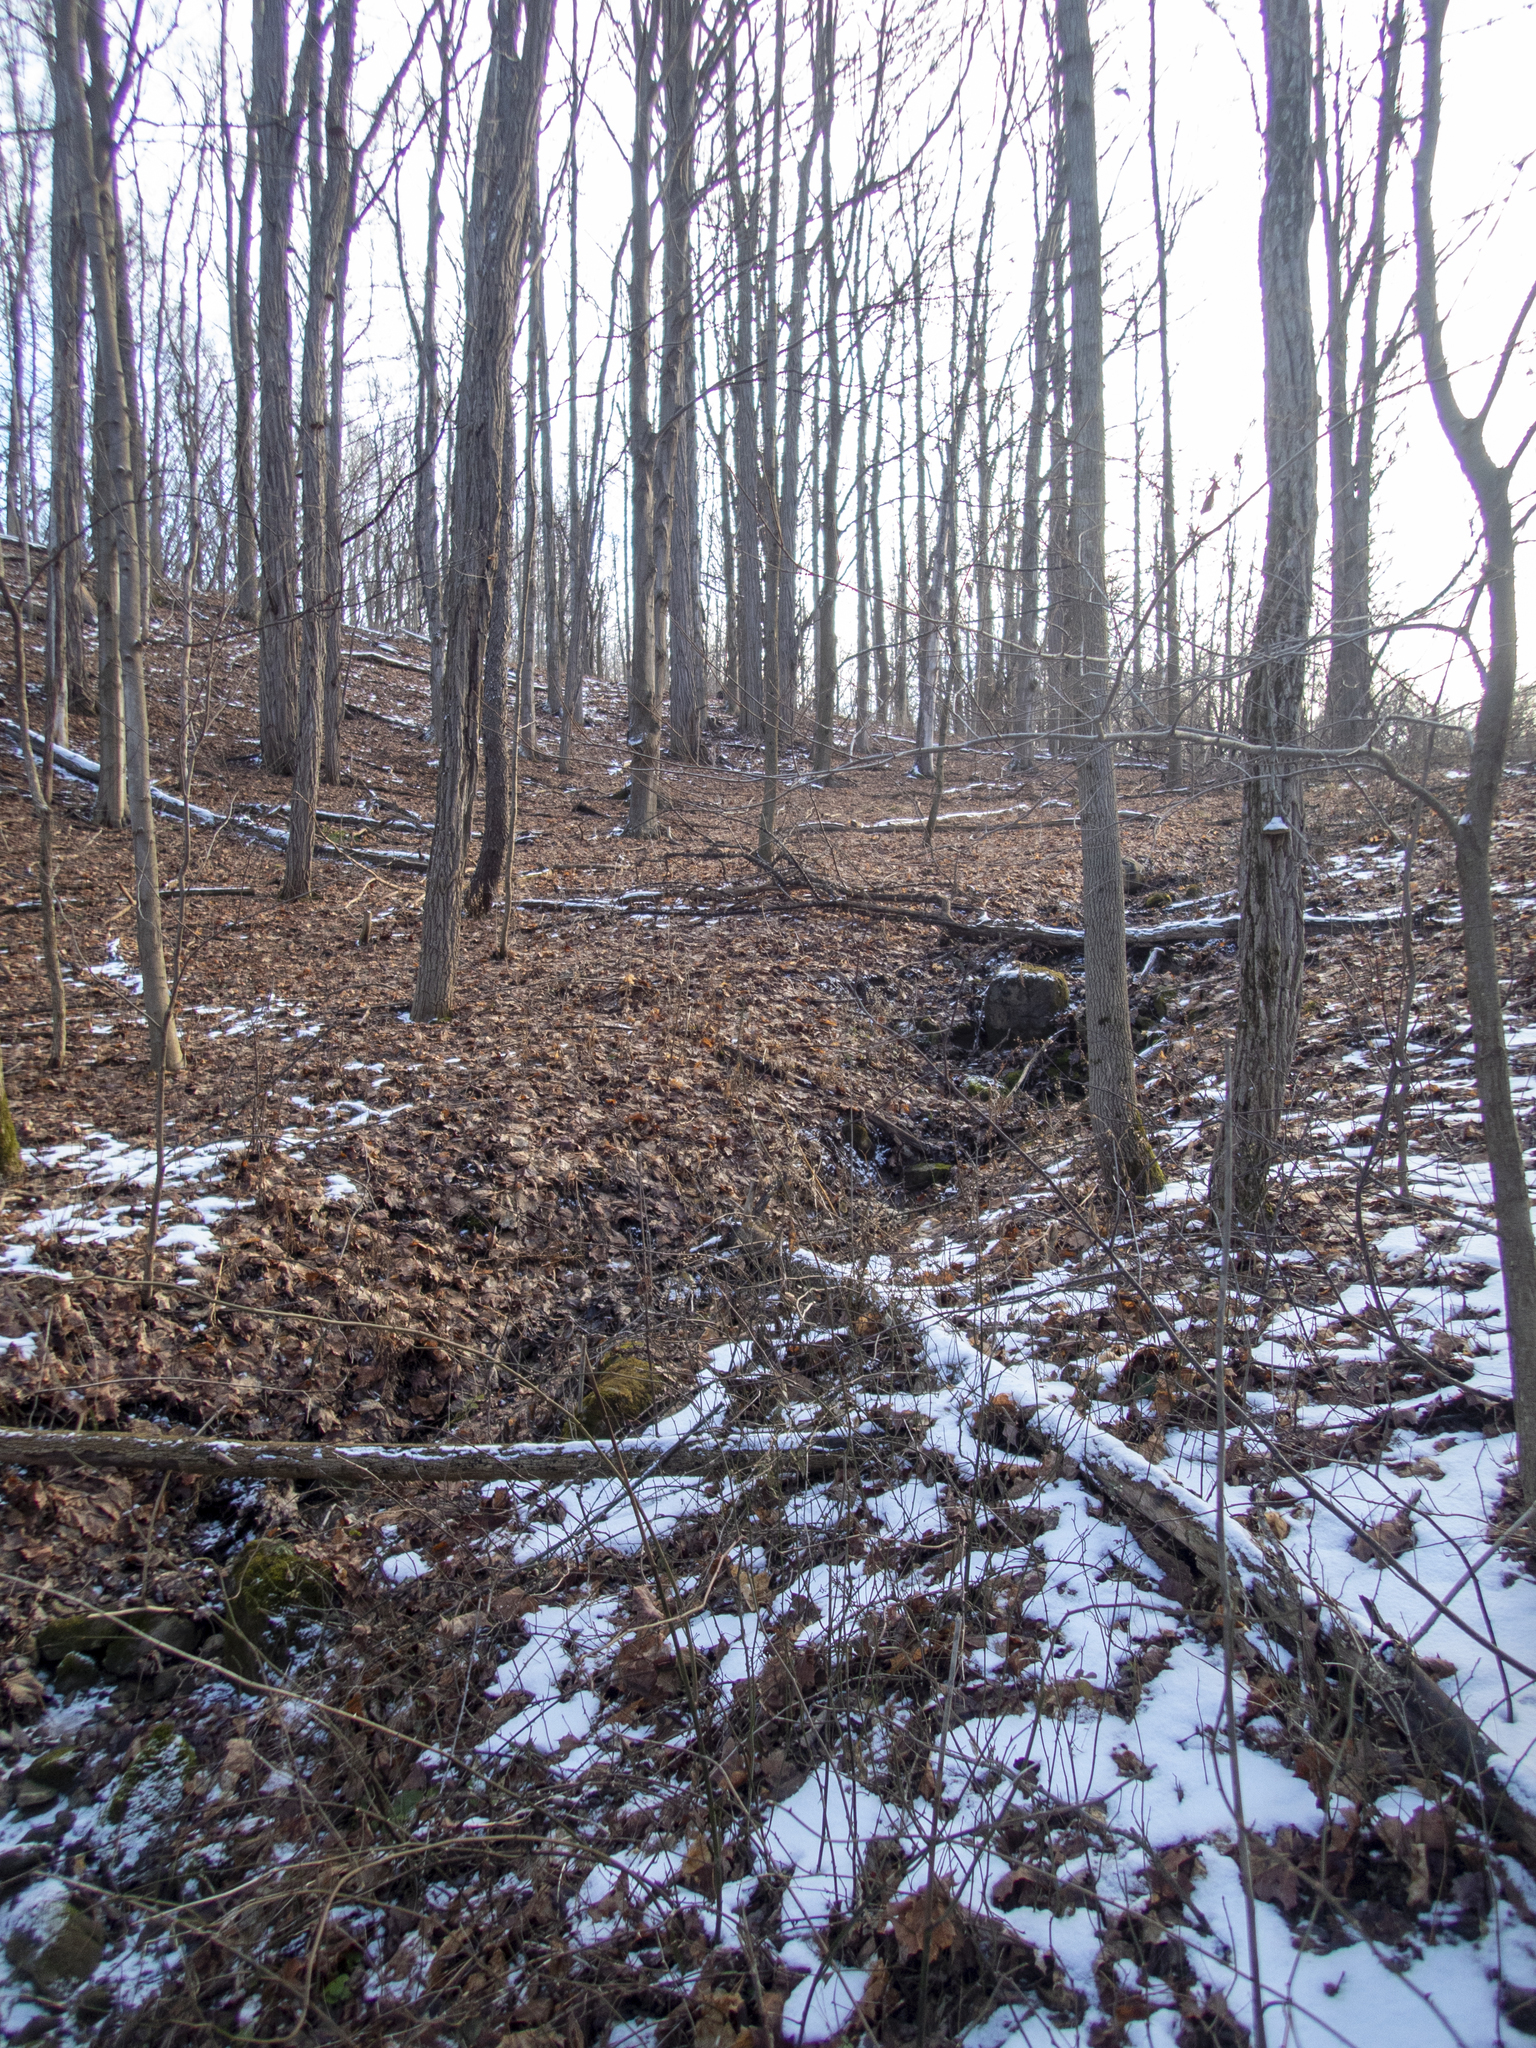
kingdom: Plantae
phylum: Tracheophyta
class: Magnoliopsida
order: Fabales
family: Fabaceae
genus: Robinia
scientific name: Robinia pseudoacacia
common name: Black locust
